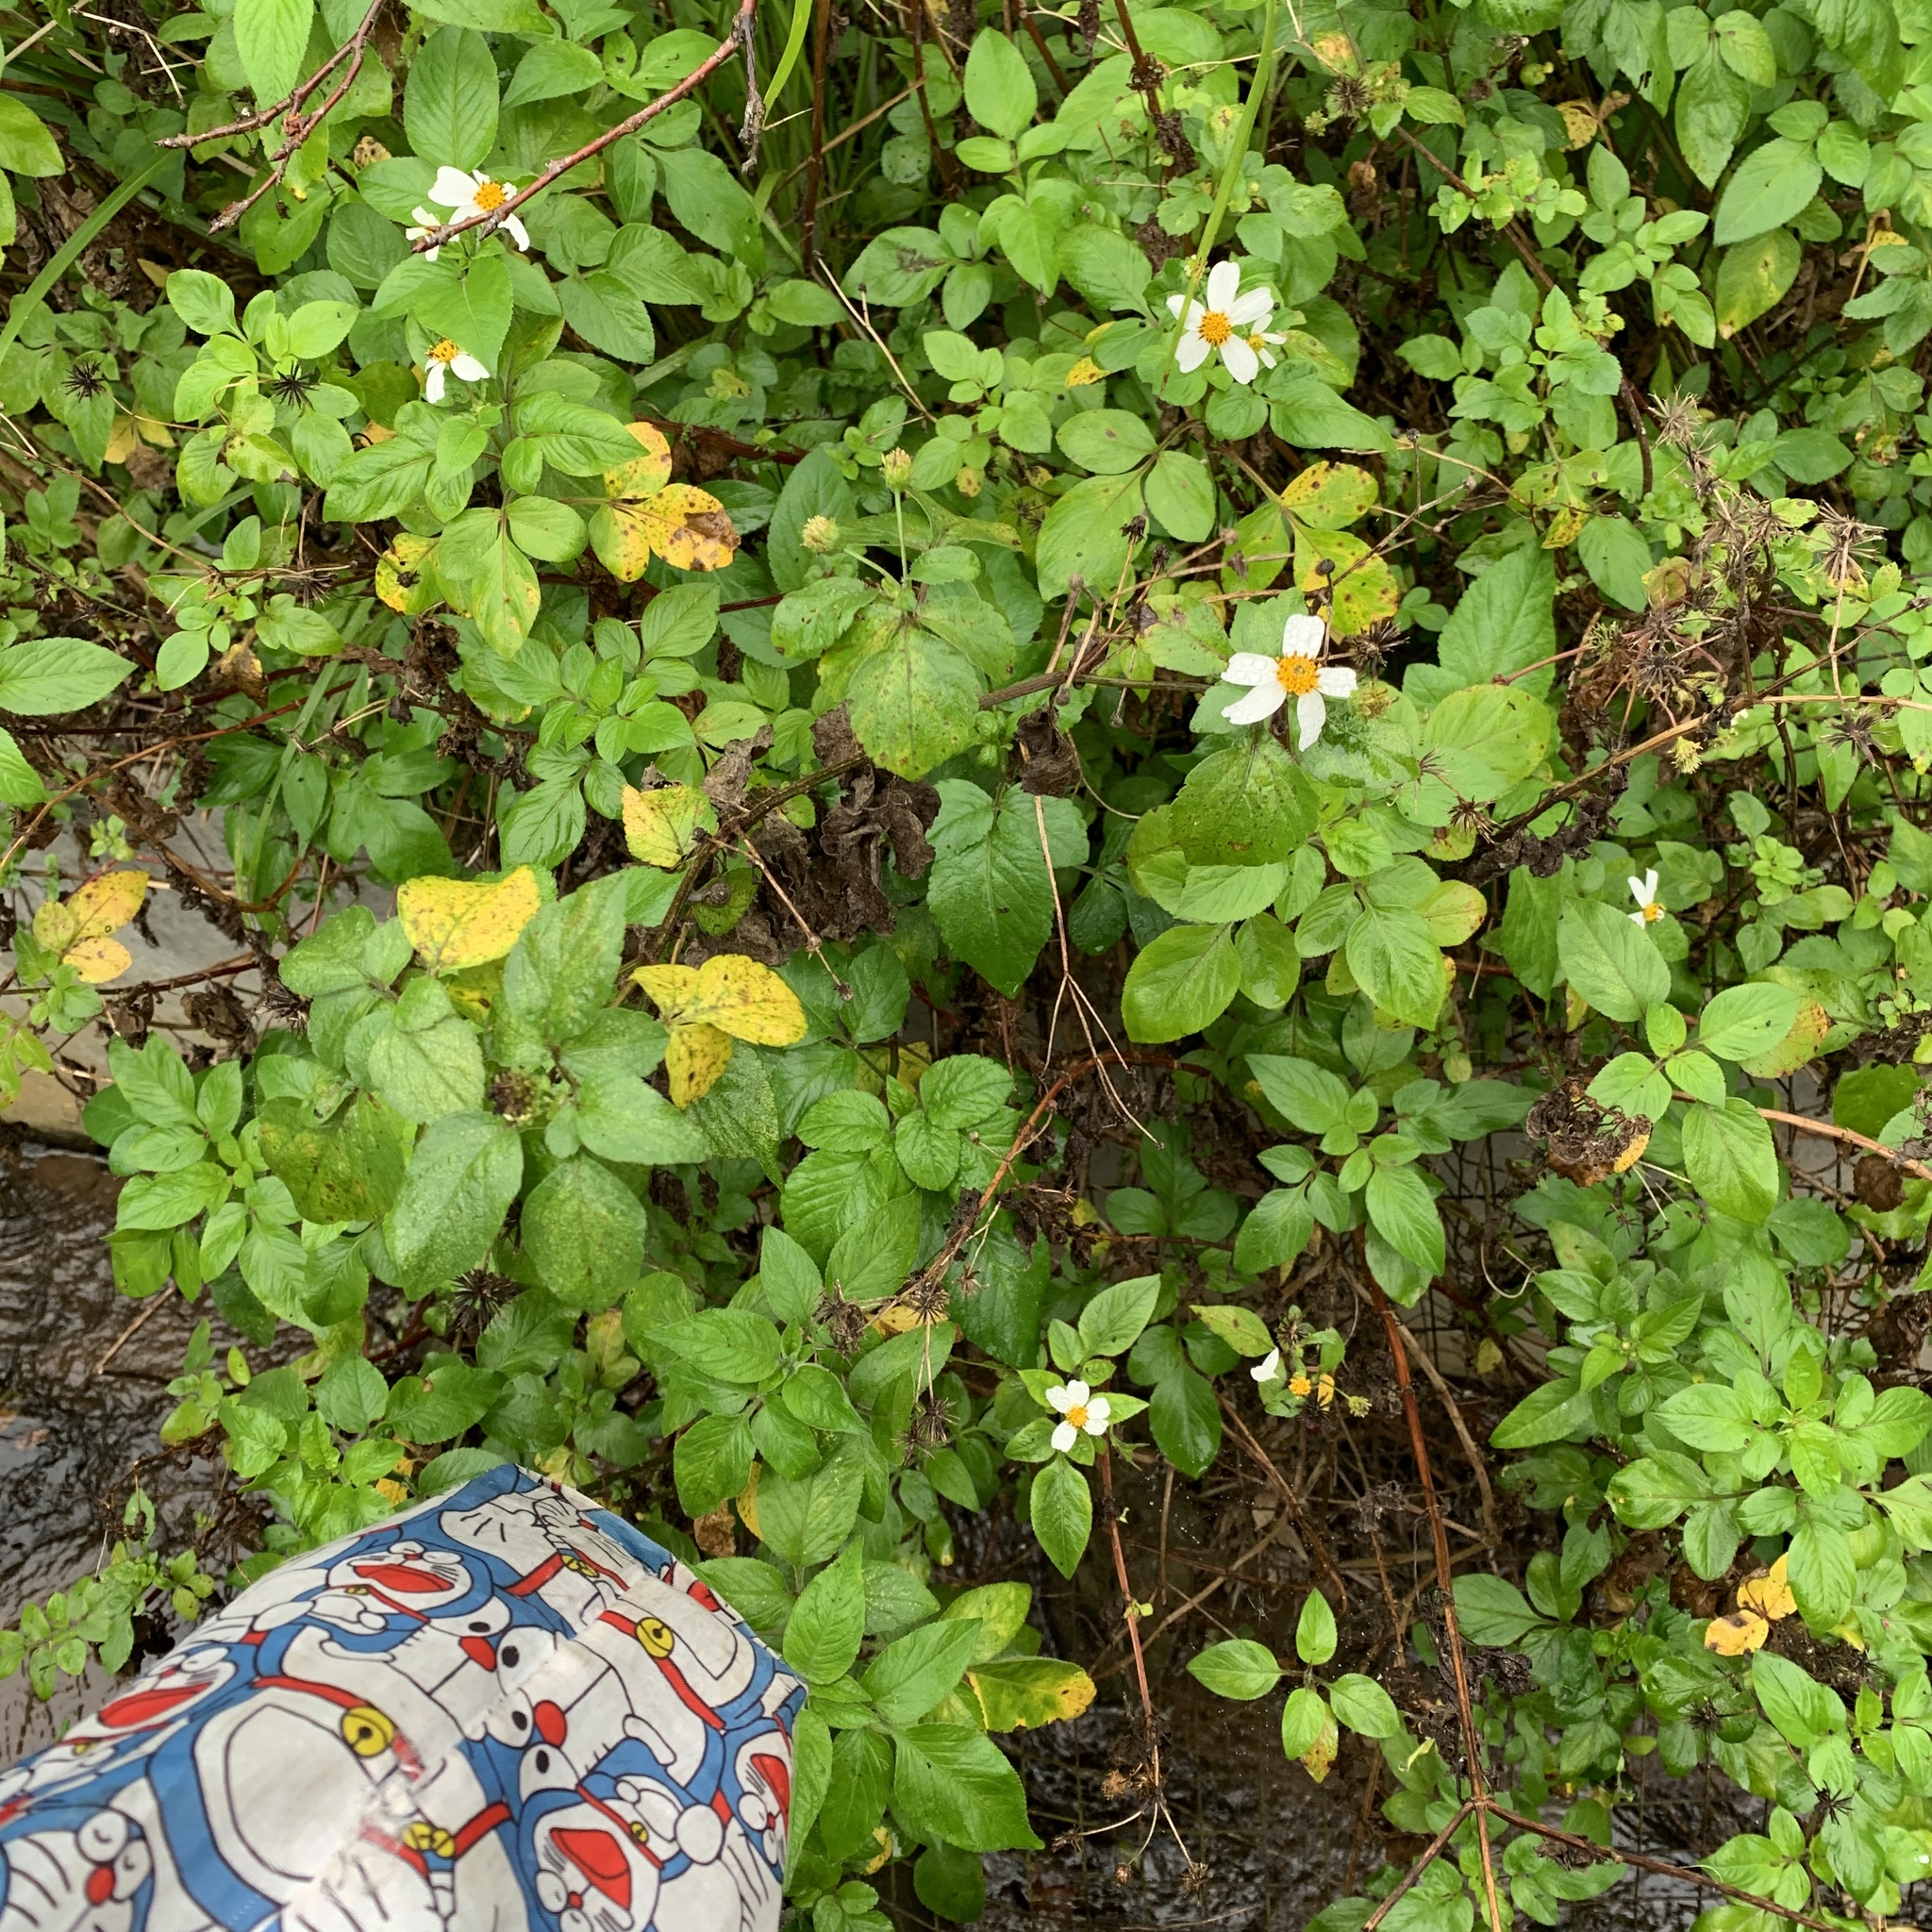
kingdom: Plantae
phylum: Tracheophyta
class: Magnoliopsida
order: Asterales
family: Asteraceae
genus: Bidens
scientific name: Bidens alba
